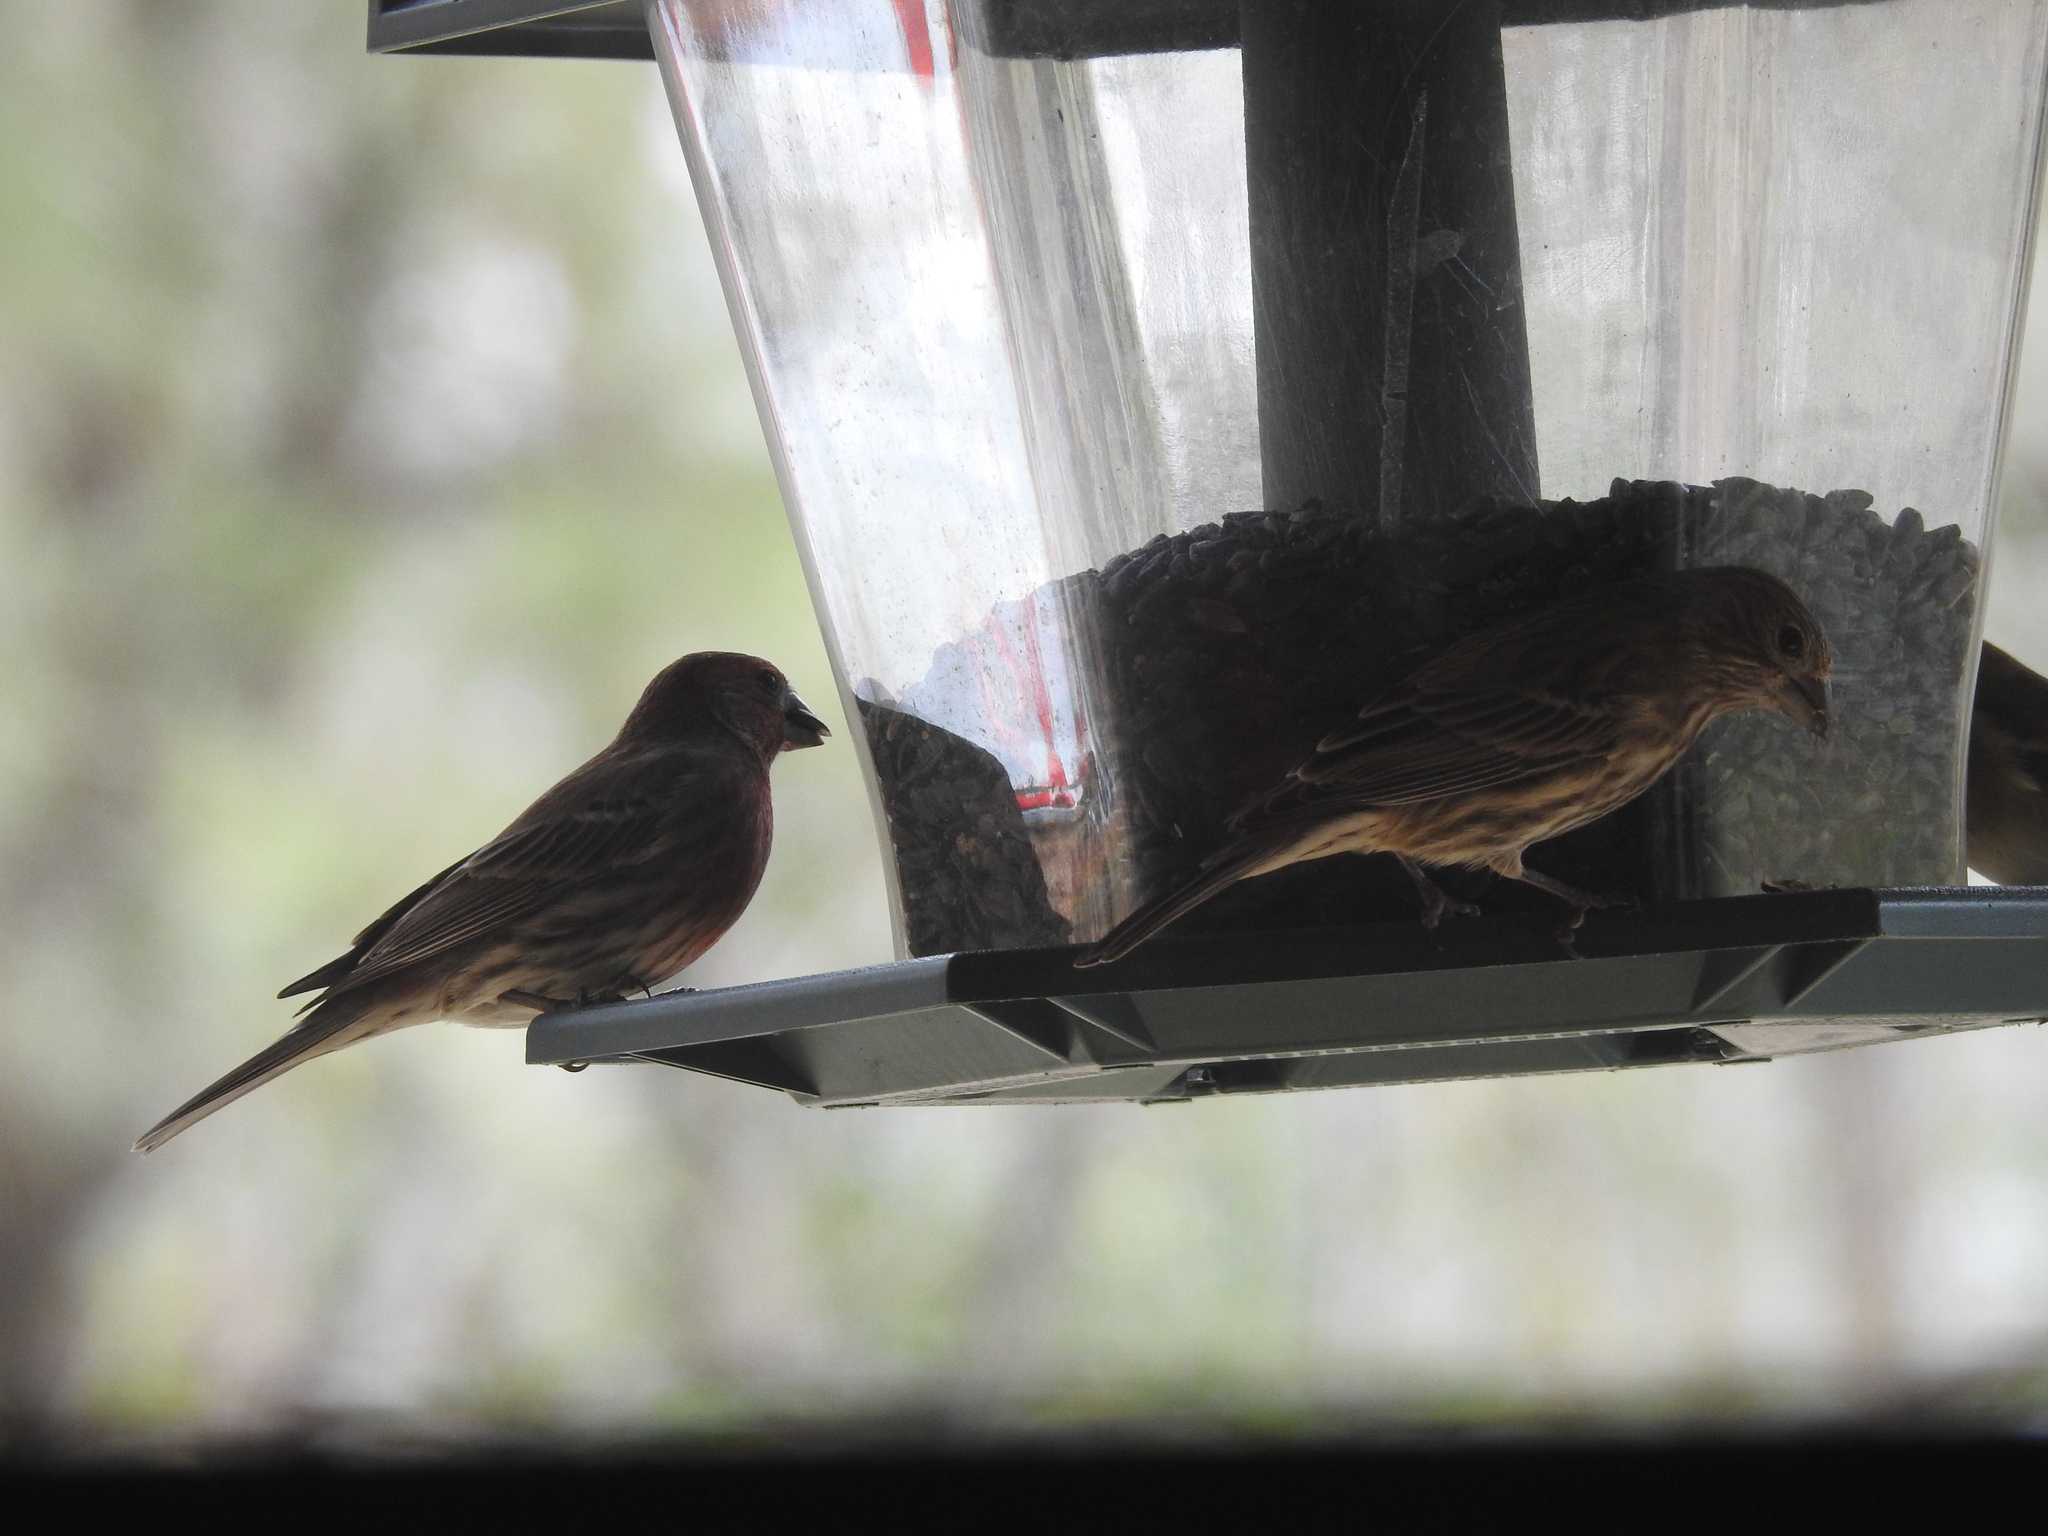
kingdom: Animalia
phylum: Chordata
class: Aves
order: Passeriformes
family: Fringillidae
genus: Haemorhous
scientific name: Haemorhous mexicanus
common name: House finch
